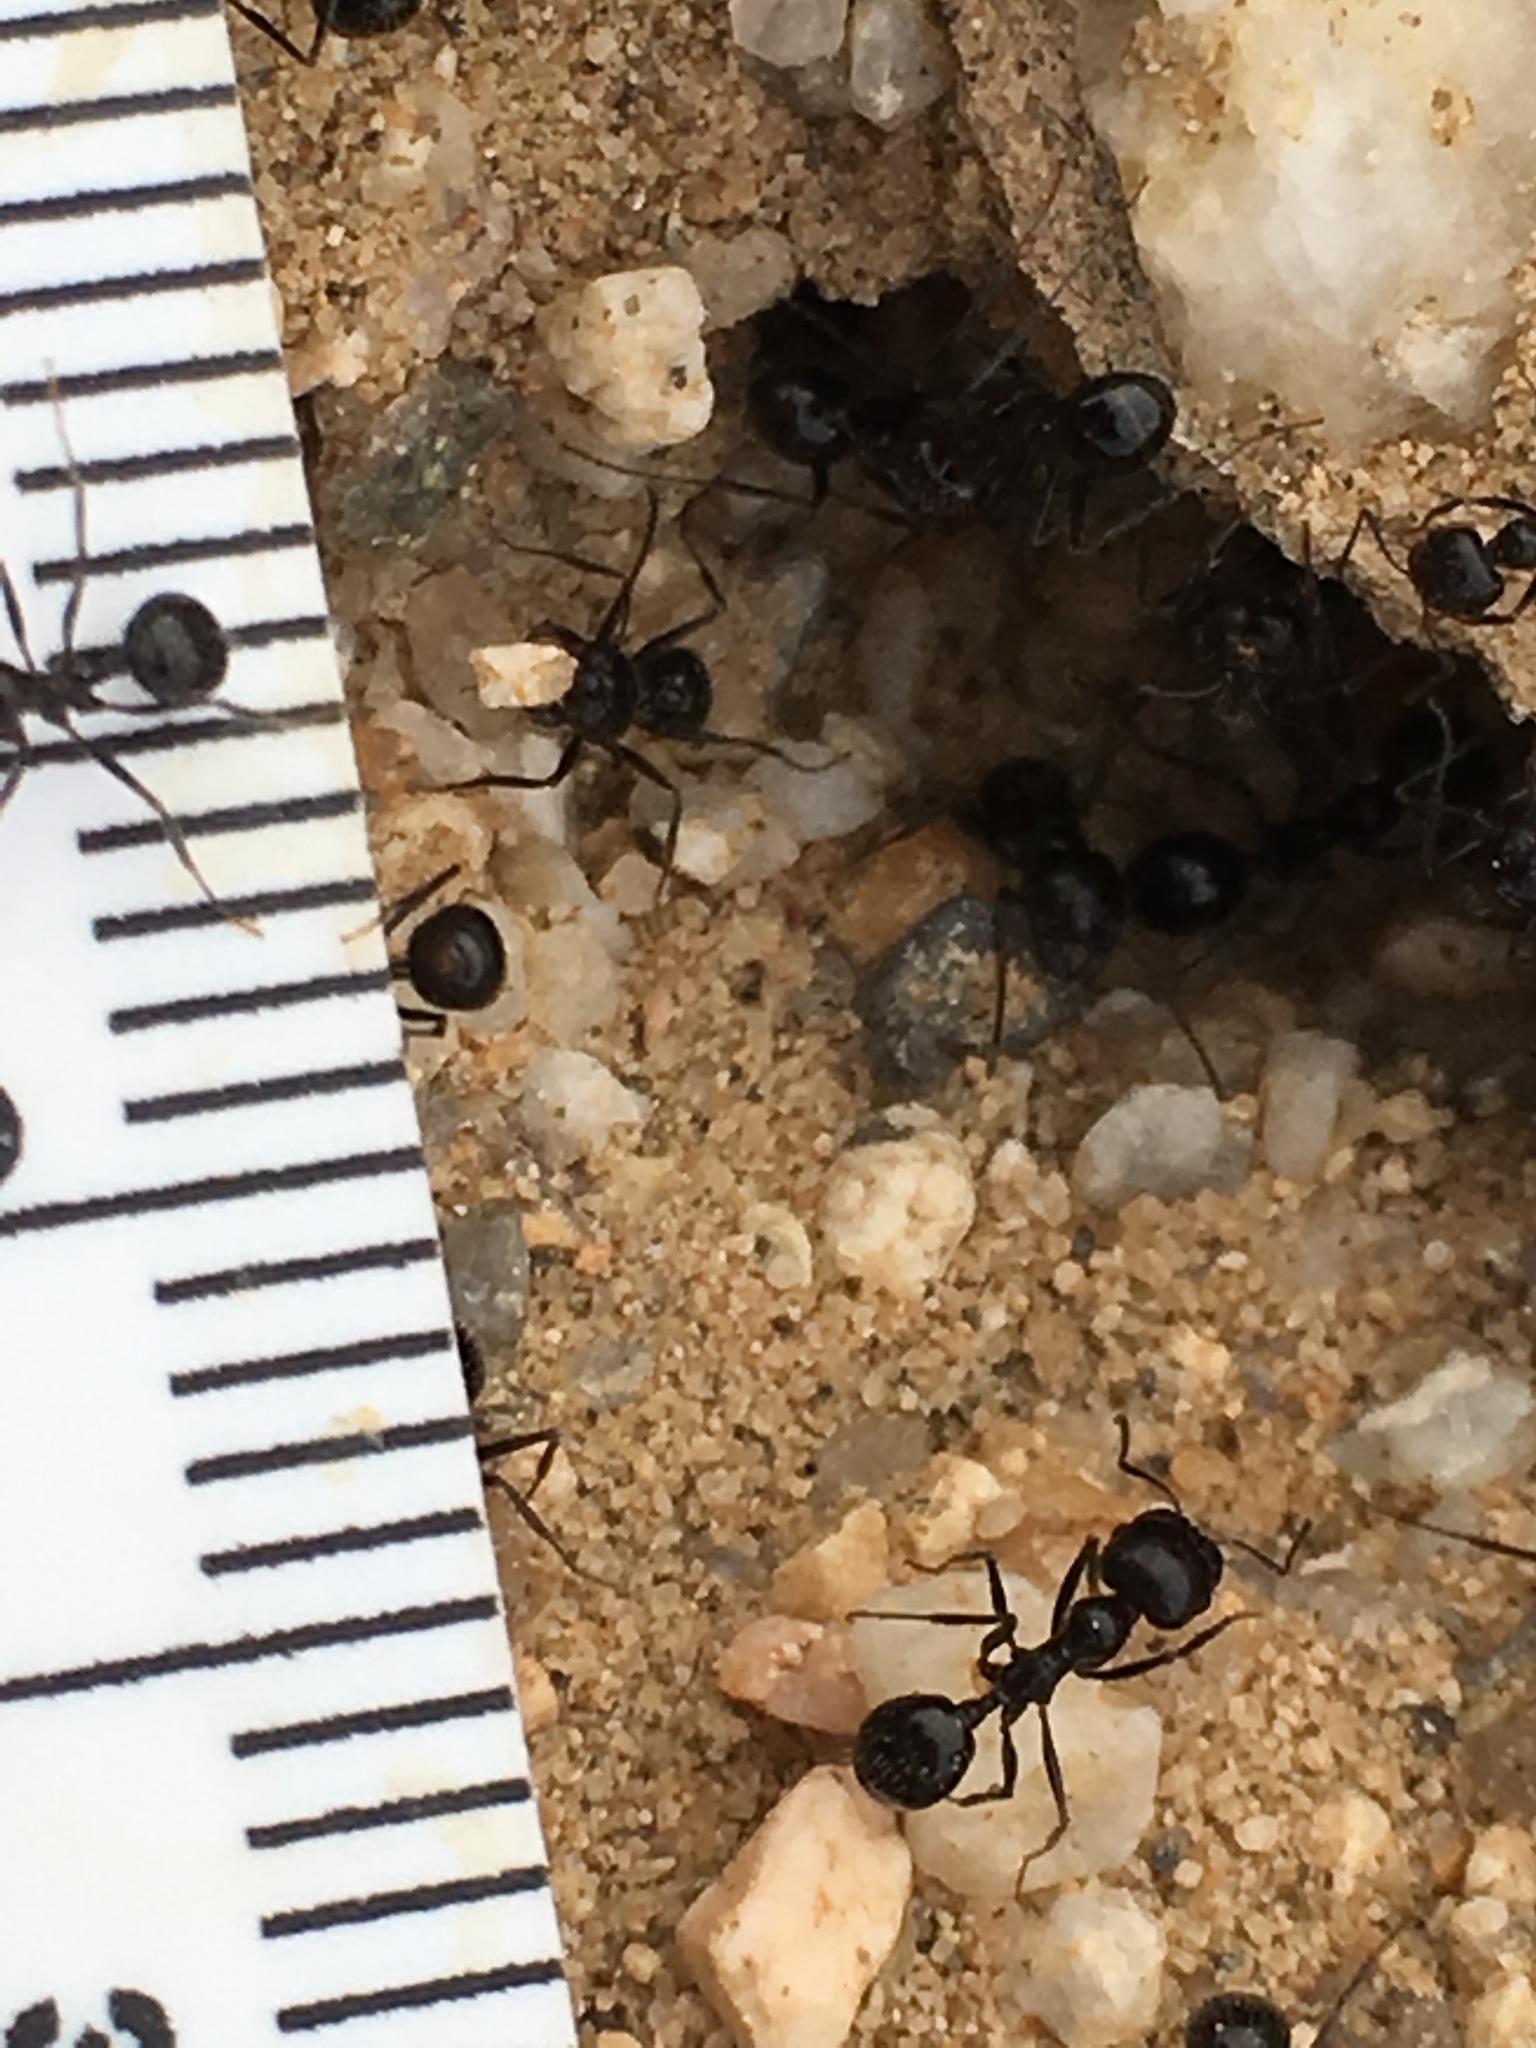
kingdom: Animalia
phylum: Arthropoda
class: Insecta
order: Hymenoptera
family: Formicidae
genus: Messor
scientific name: Messor pergandei
